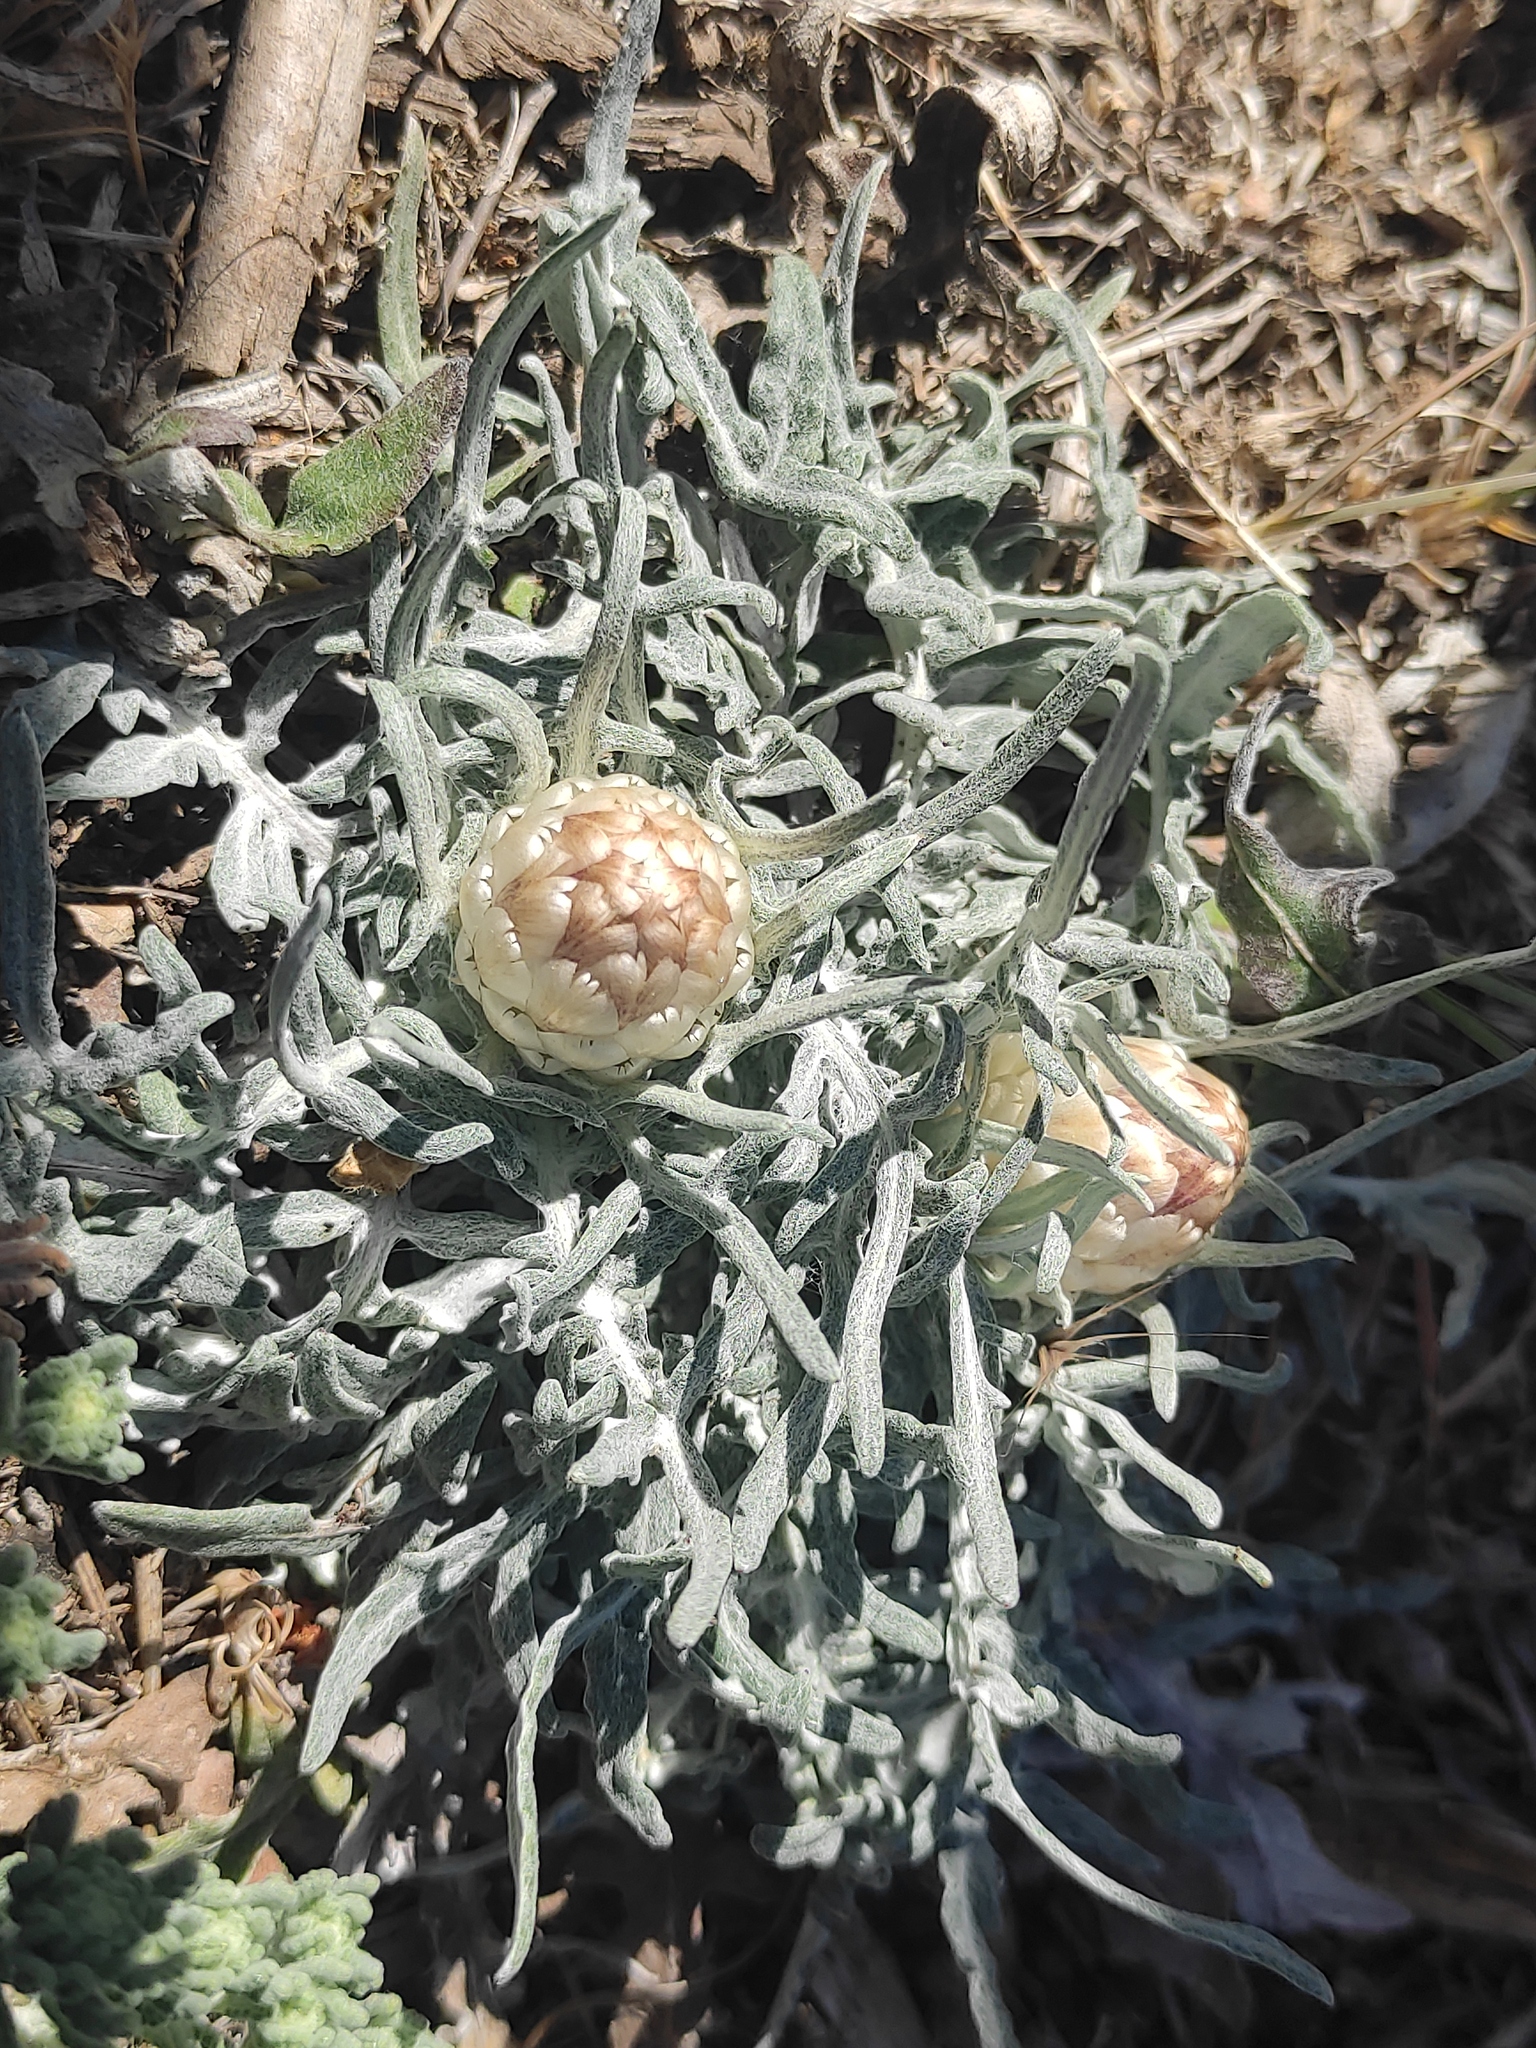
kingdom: Plantae
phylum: Tracheophyta
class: Magnoliopsida
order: Asterales
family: Asteraceae
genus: Leuzea
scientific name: Leuzea conifera
